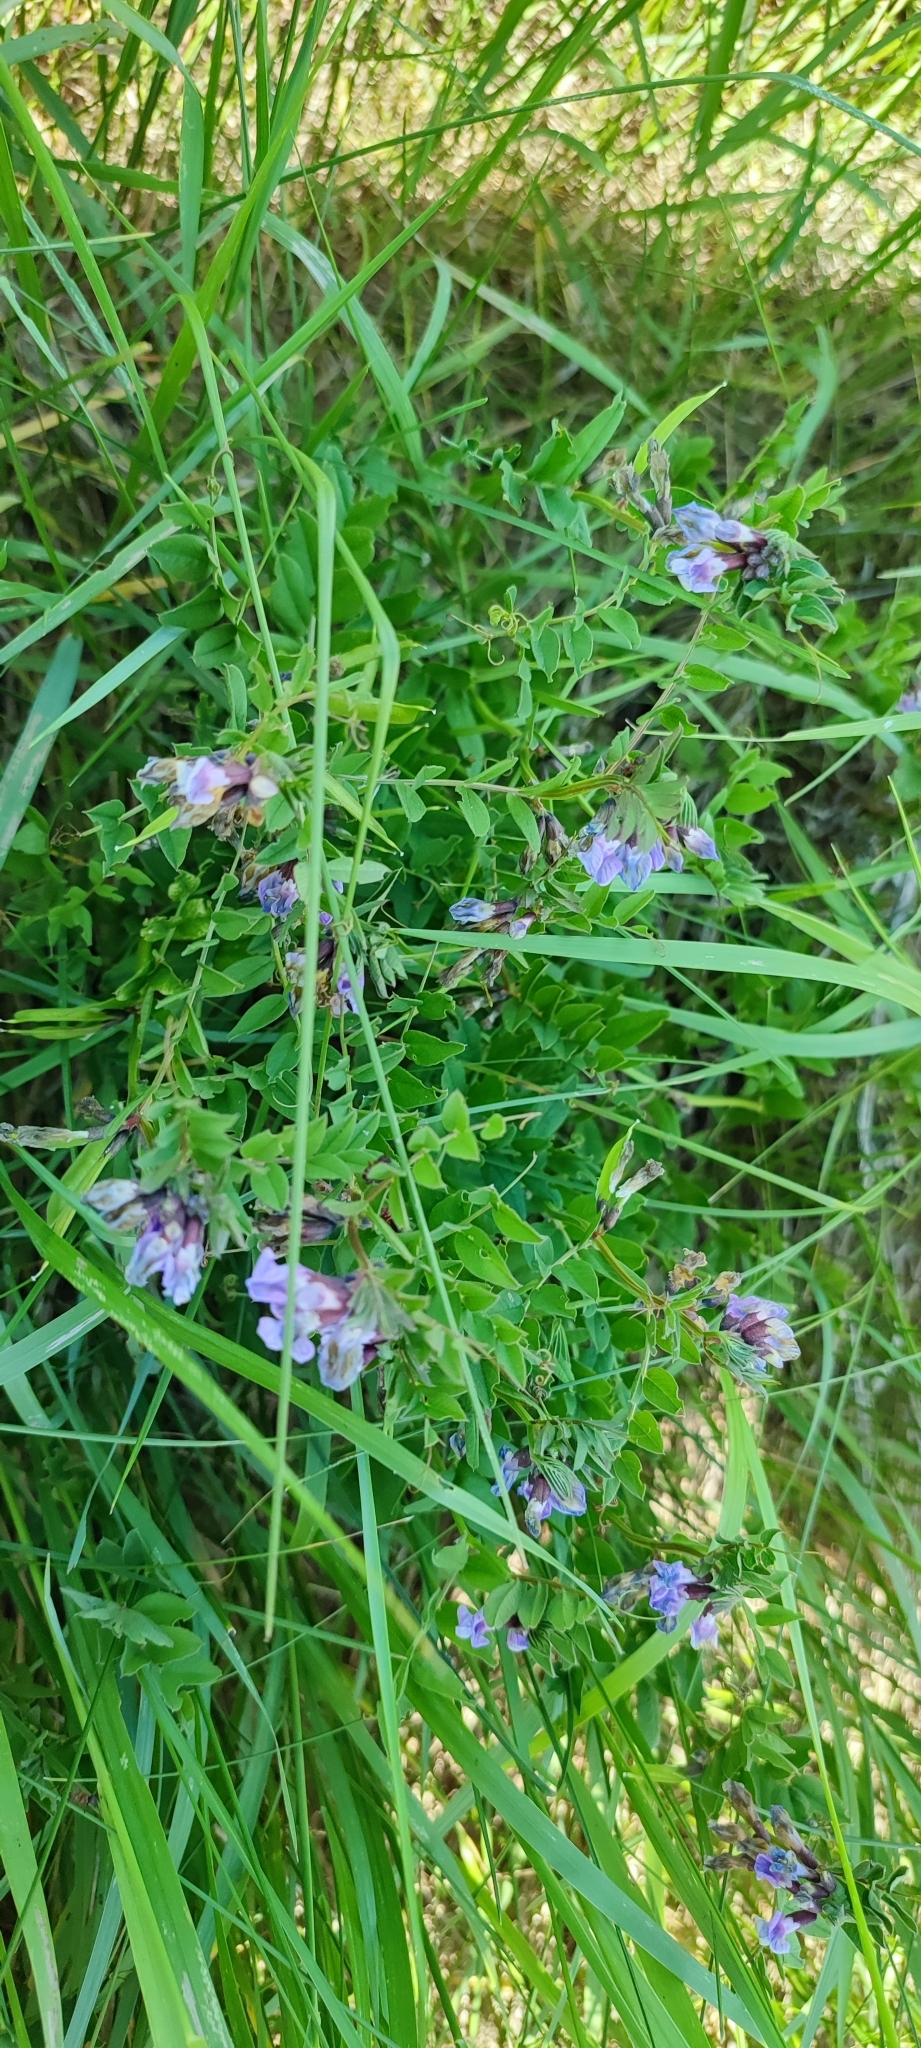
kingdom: Plantae
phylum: Tracheophyta
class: Magnoliopsida
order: Fabales
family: Fabaceae
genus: Vicia
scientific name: Vicia sepium
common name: Bush vetch
